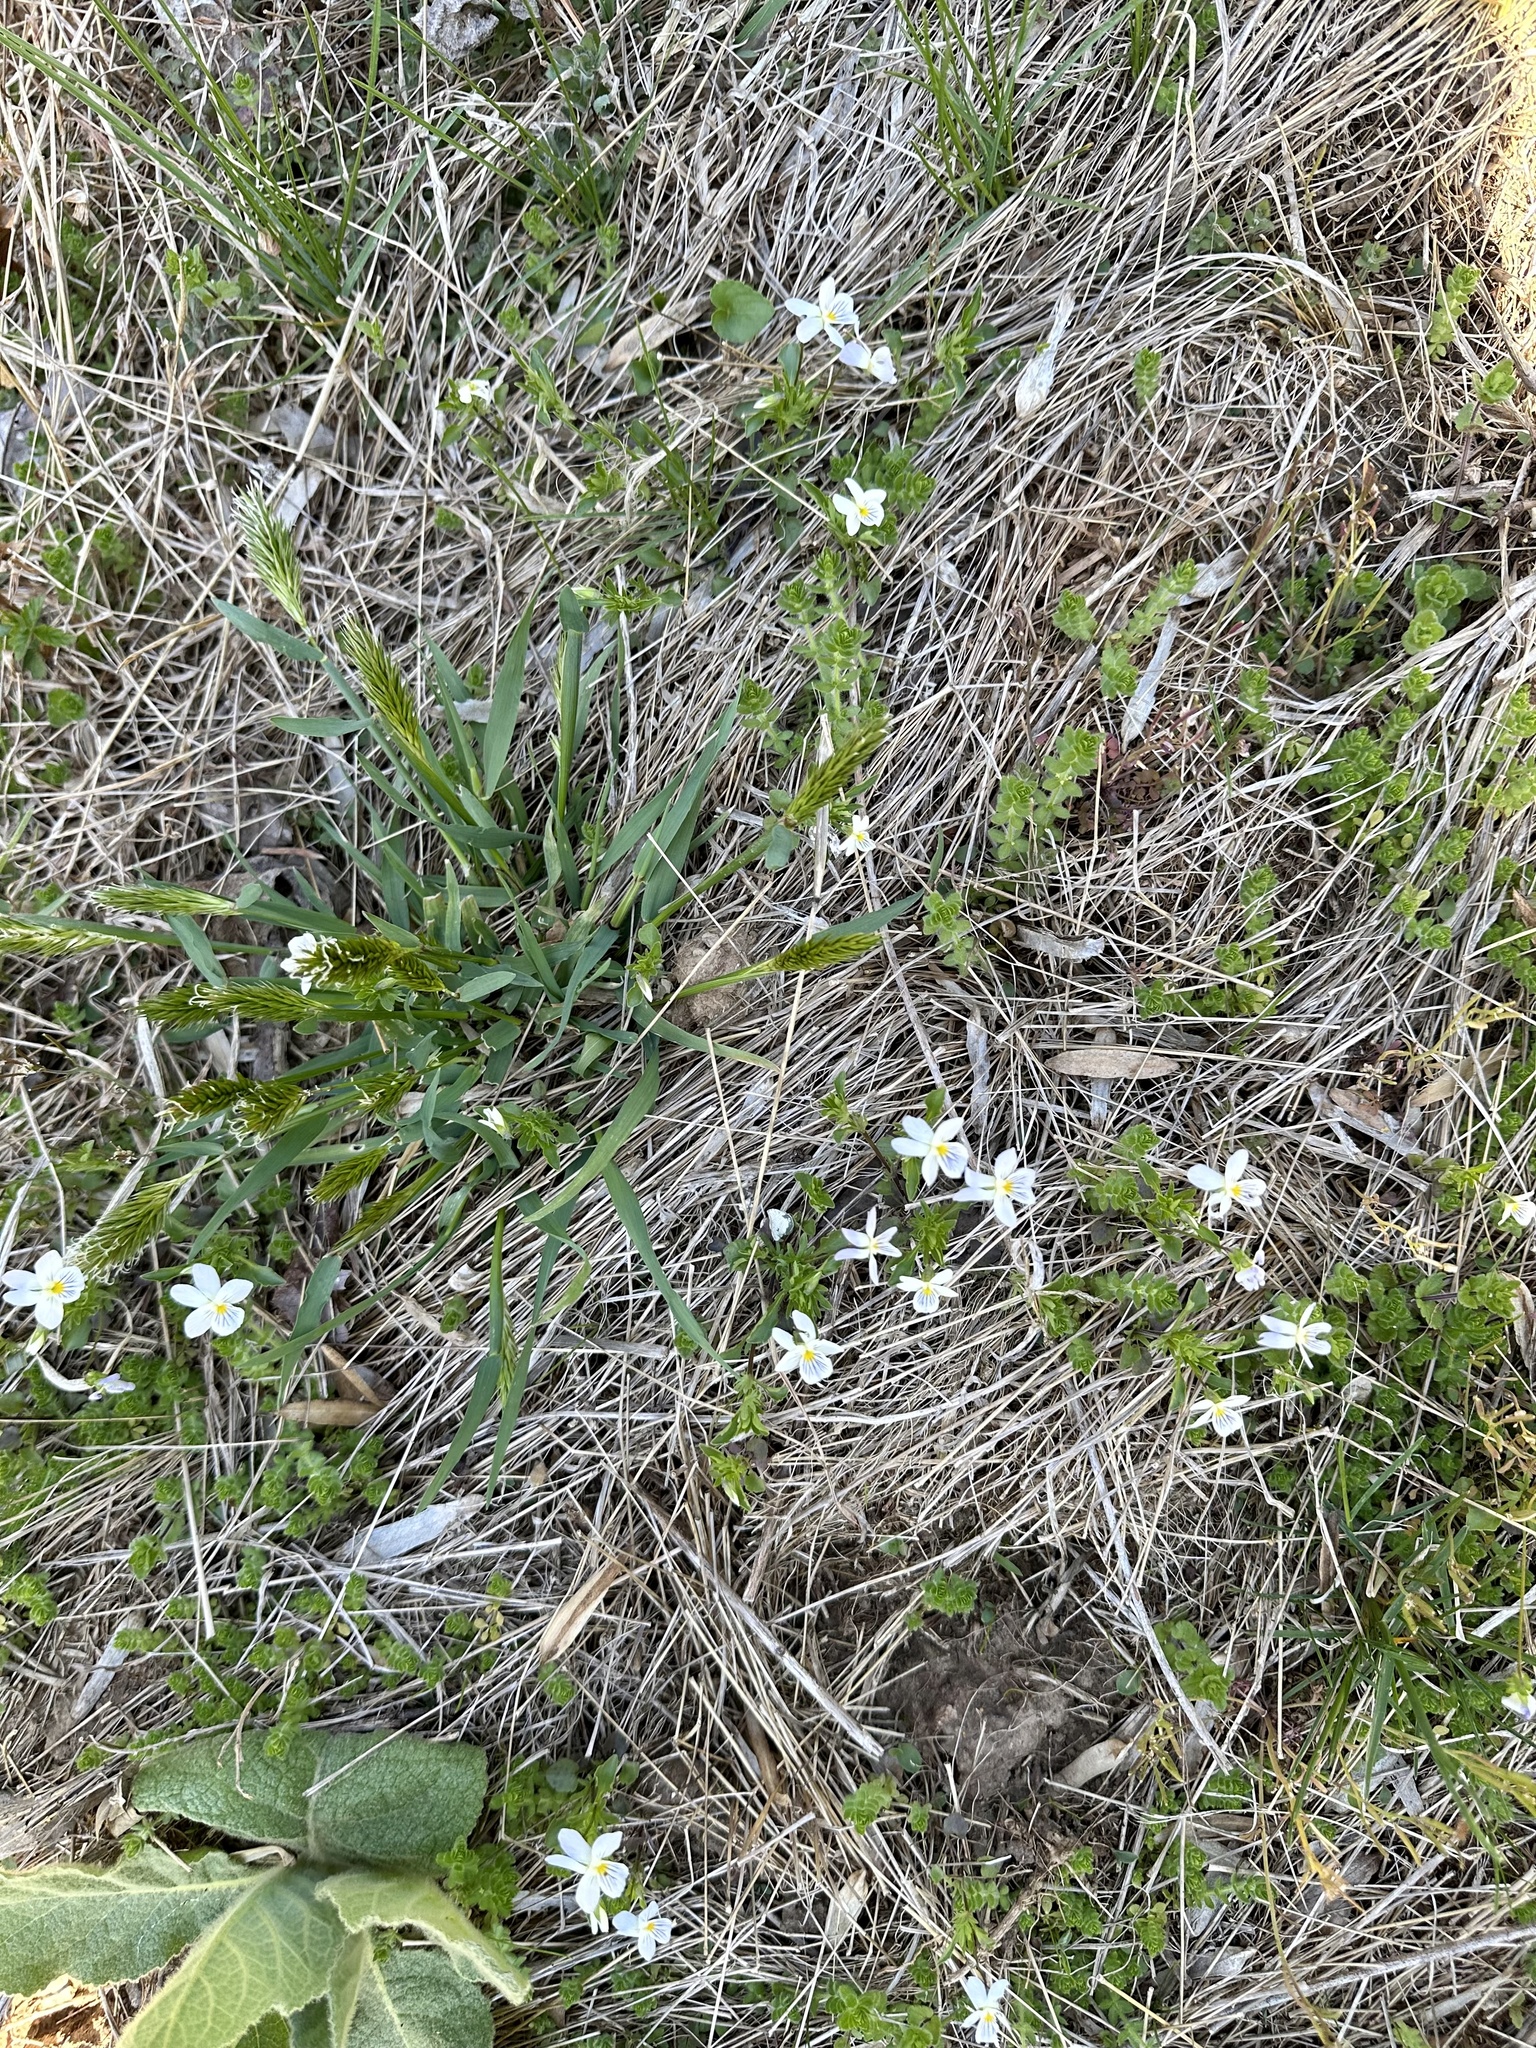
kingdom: Plantae
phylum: Tracheophyta
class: Magnoliopsida
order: Malpighiales
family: Violaceae
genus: Viola
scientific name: Viola rafinesquei
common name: American field pansy
